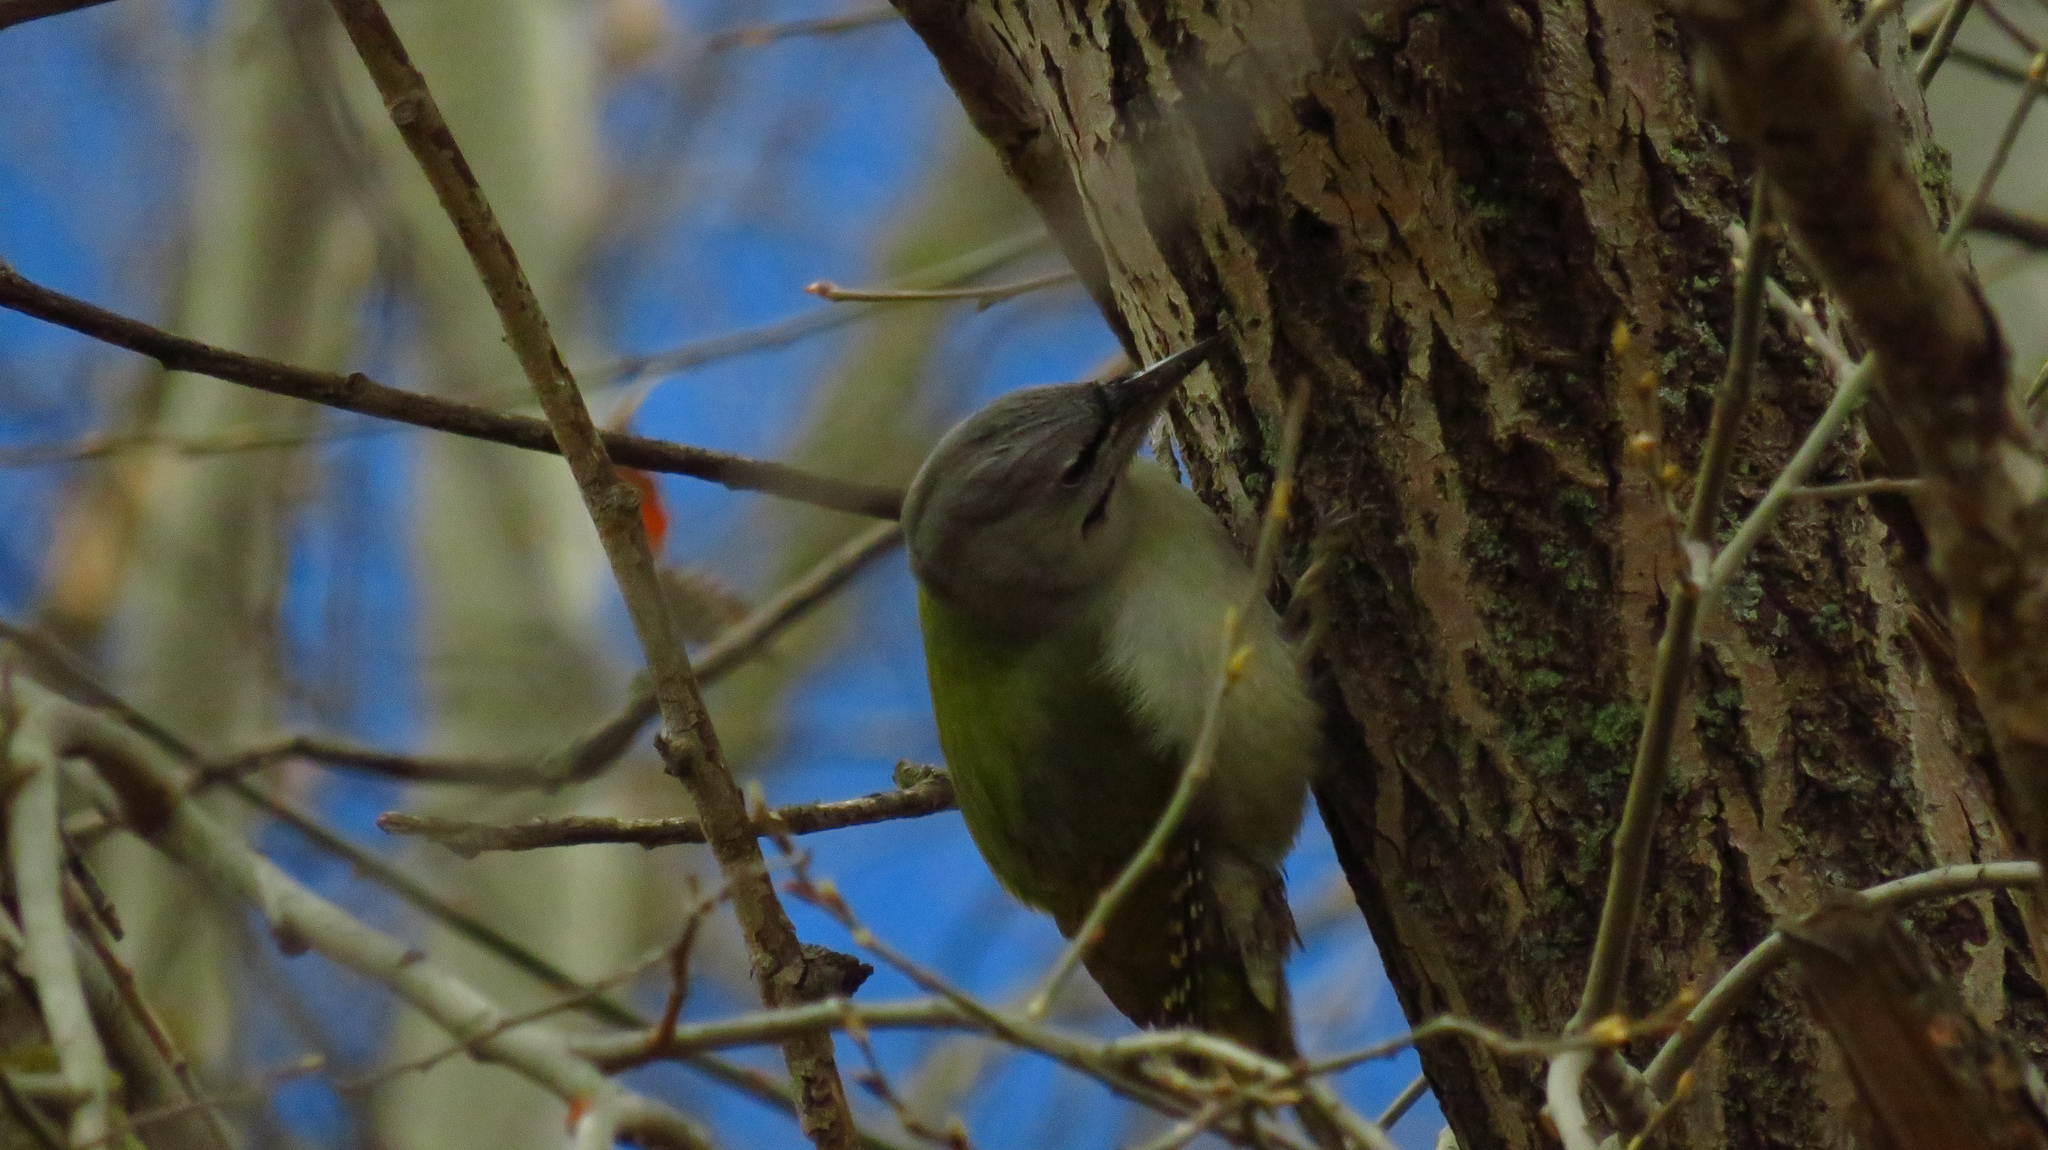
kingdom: Animalia
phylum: Chordata
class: Aves
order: Piciformes
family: Picidae
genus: Picus
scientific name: Picus canus
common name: Grey-headed woodpecker
